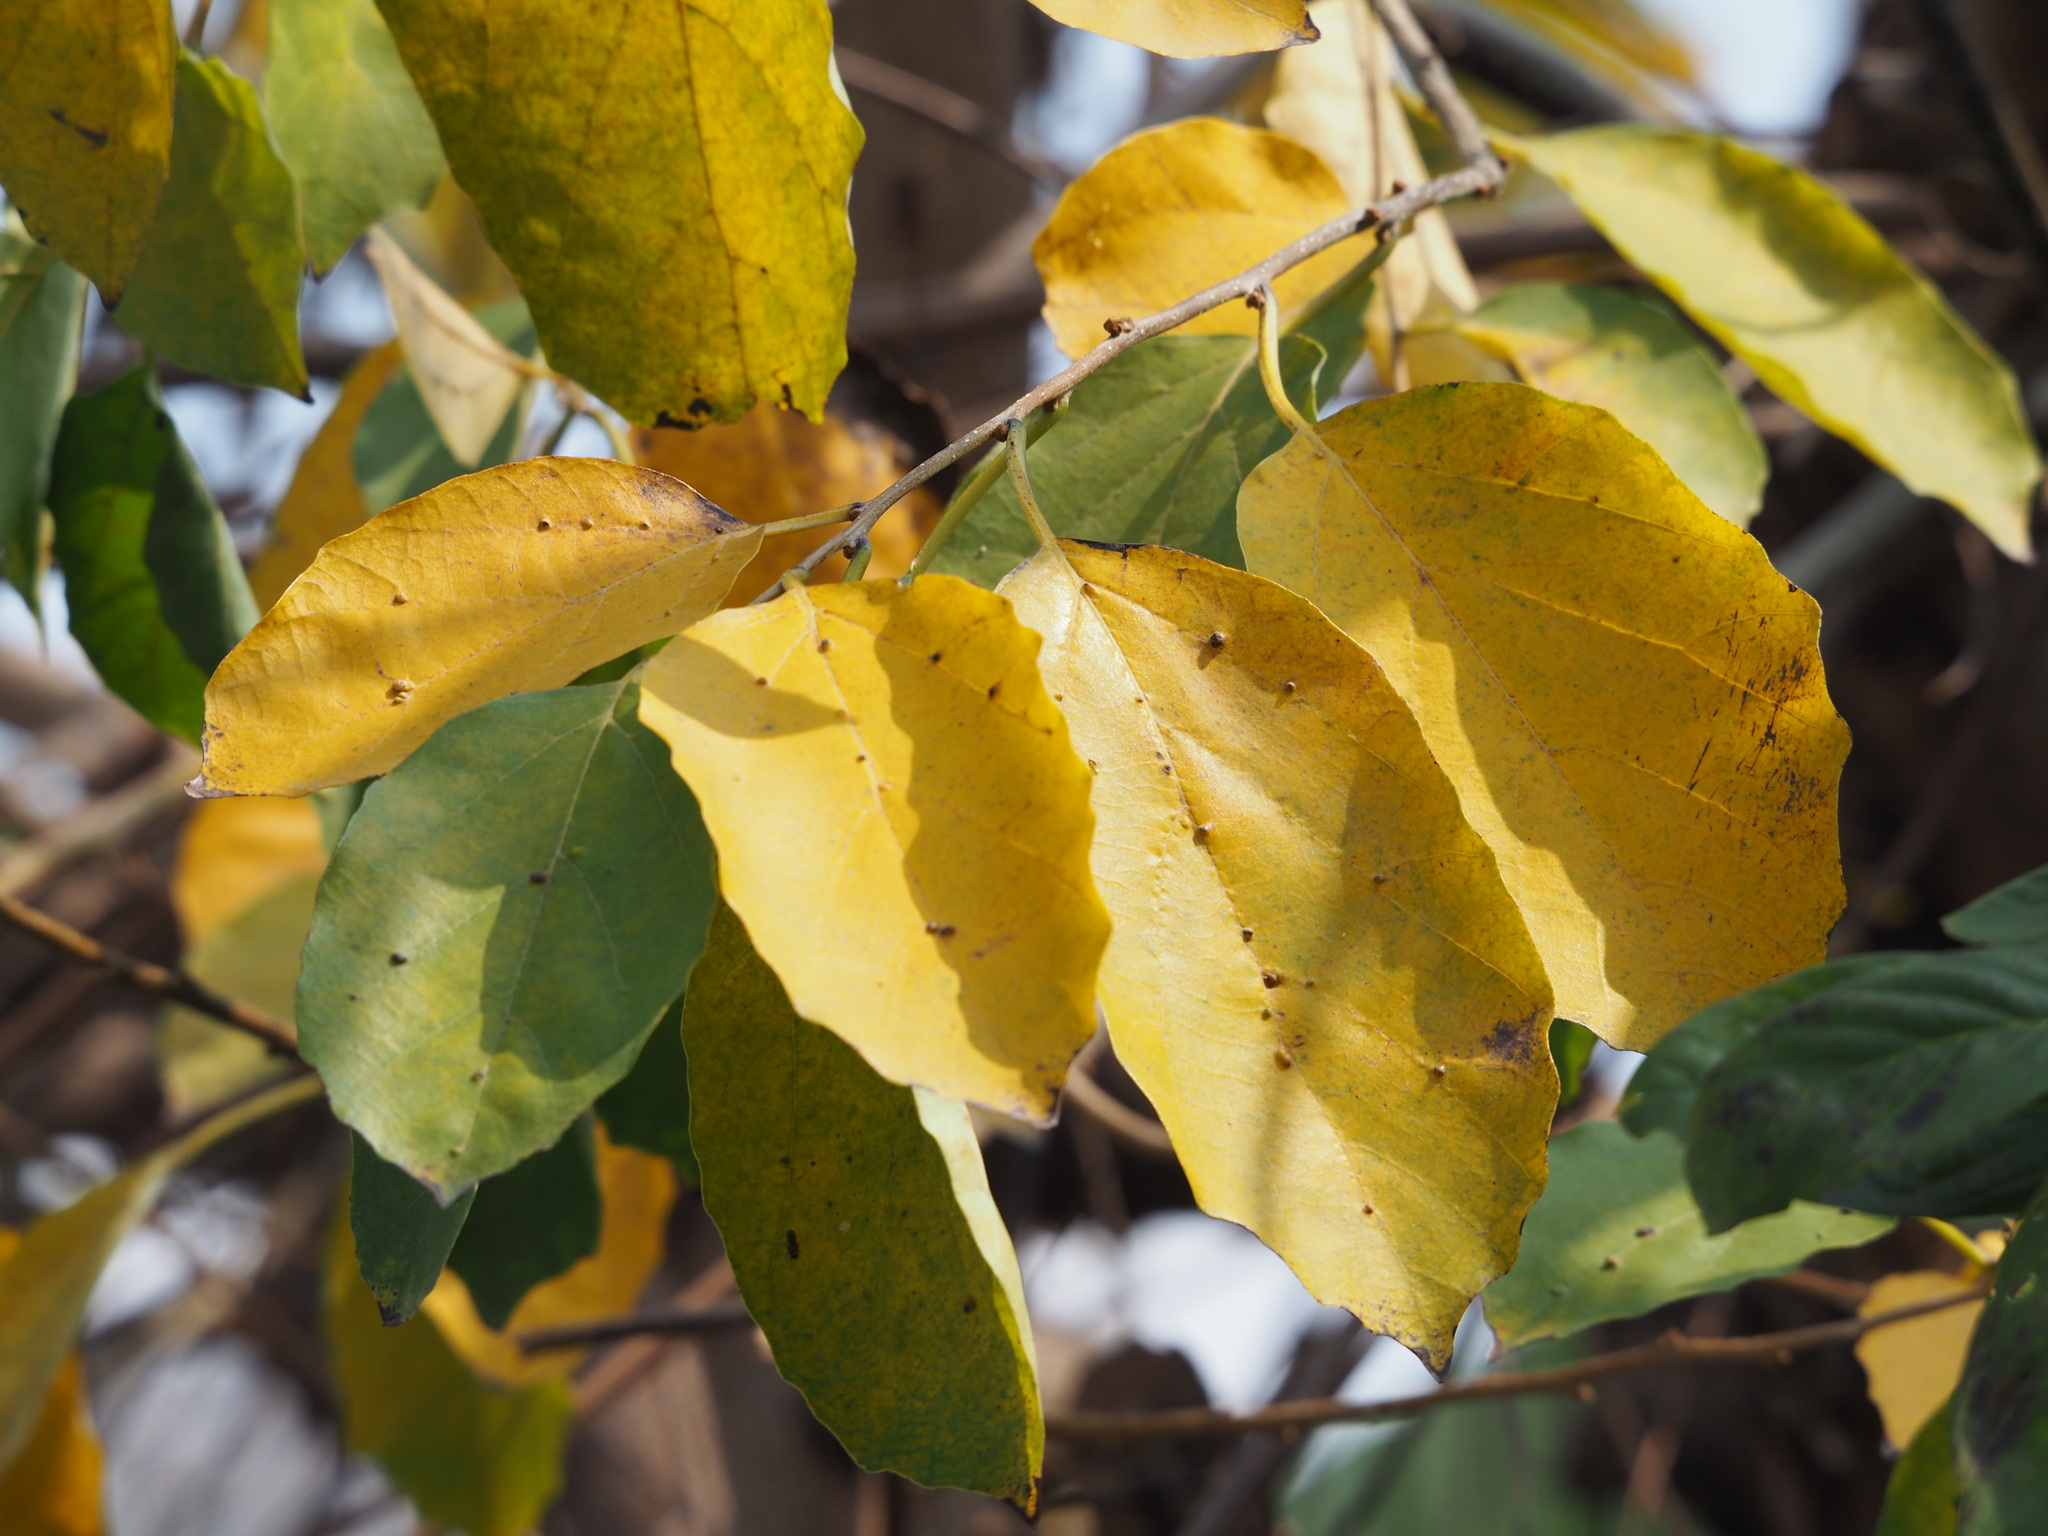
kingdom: Plantae
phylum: Tracheophyta
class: Magnoliopsida
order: Boraginales
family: Cordiaceae
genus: Cordia
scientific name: Cordia dichotoma
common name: Fragrant manjack
